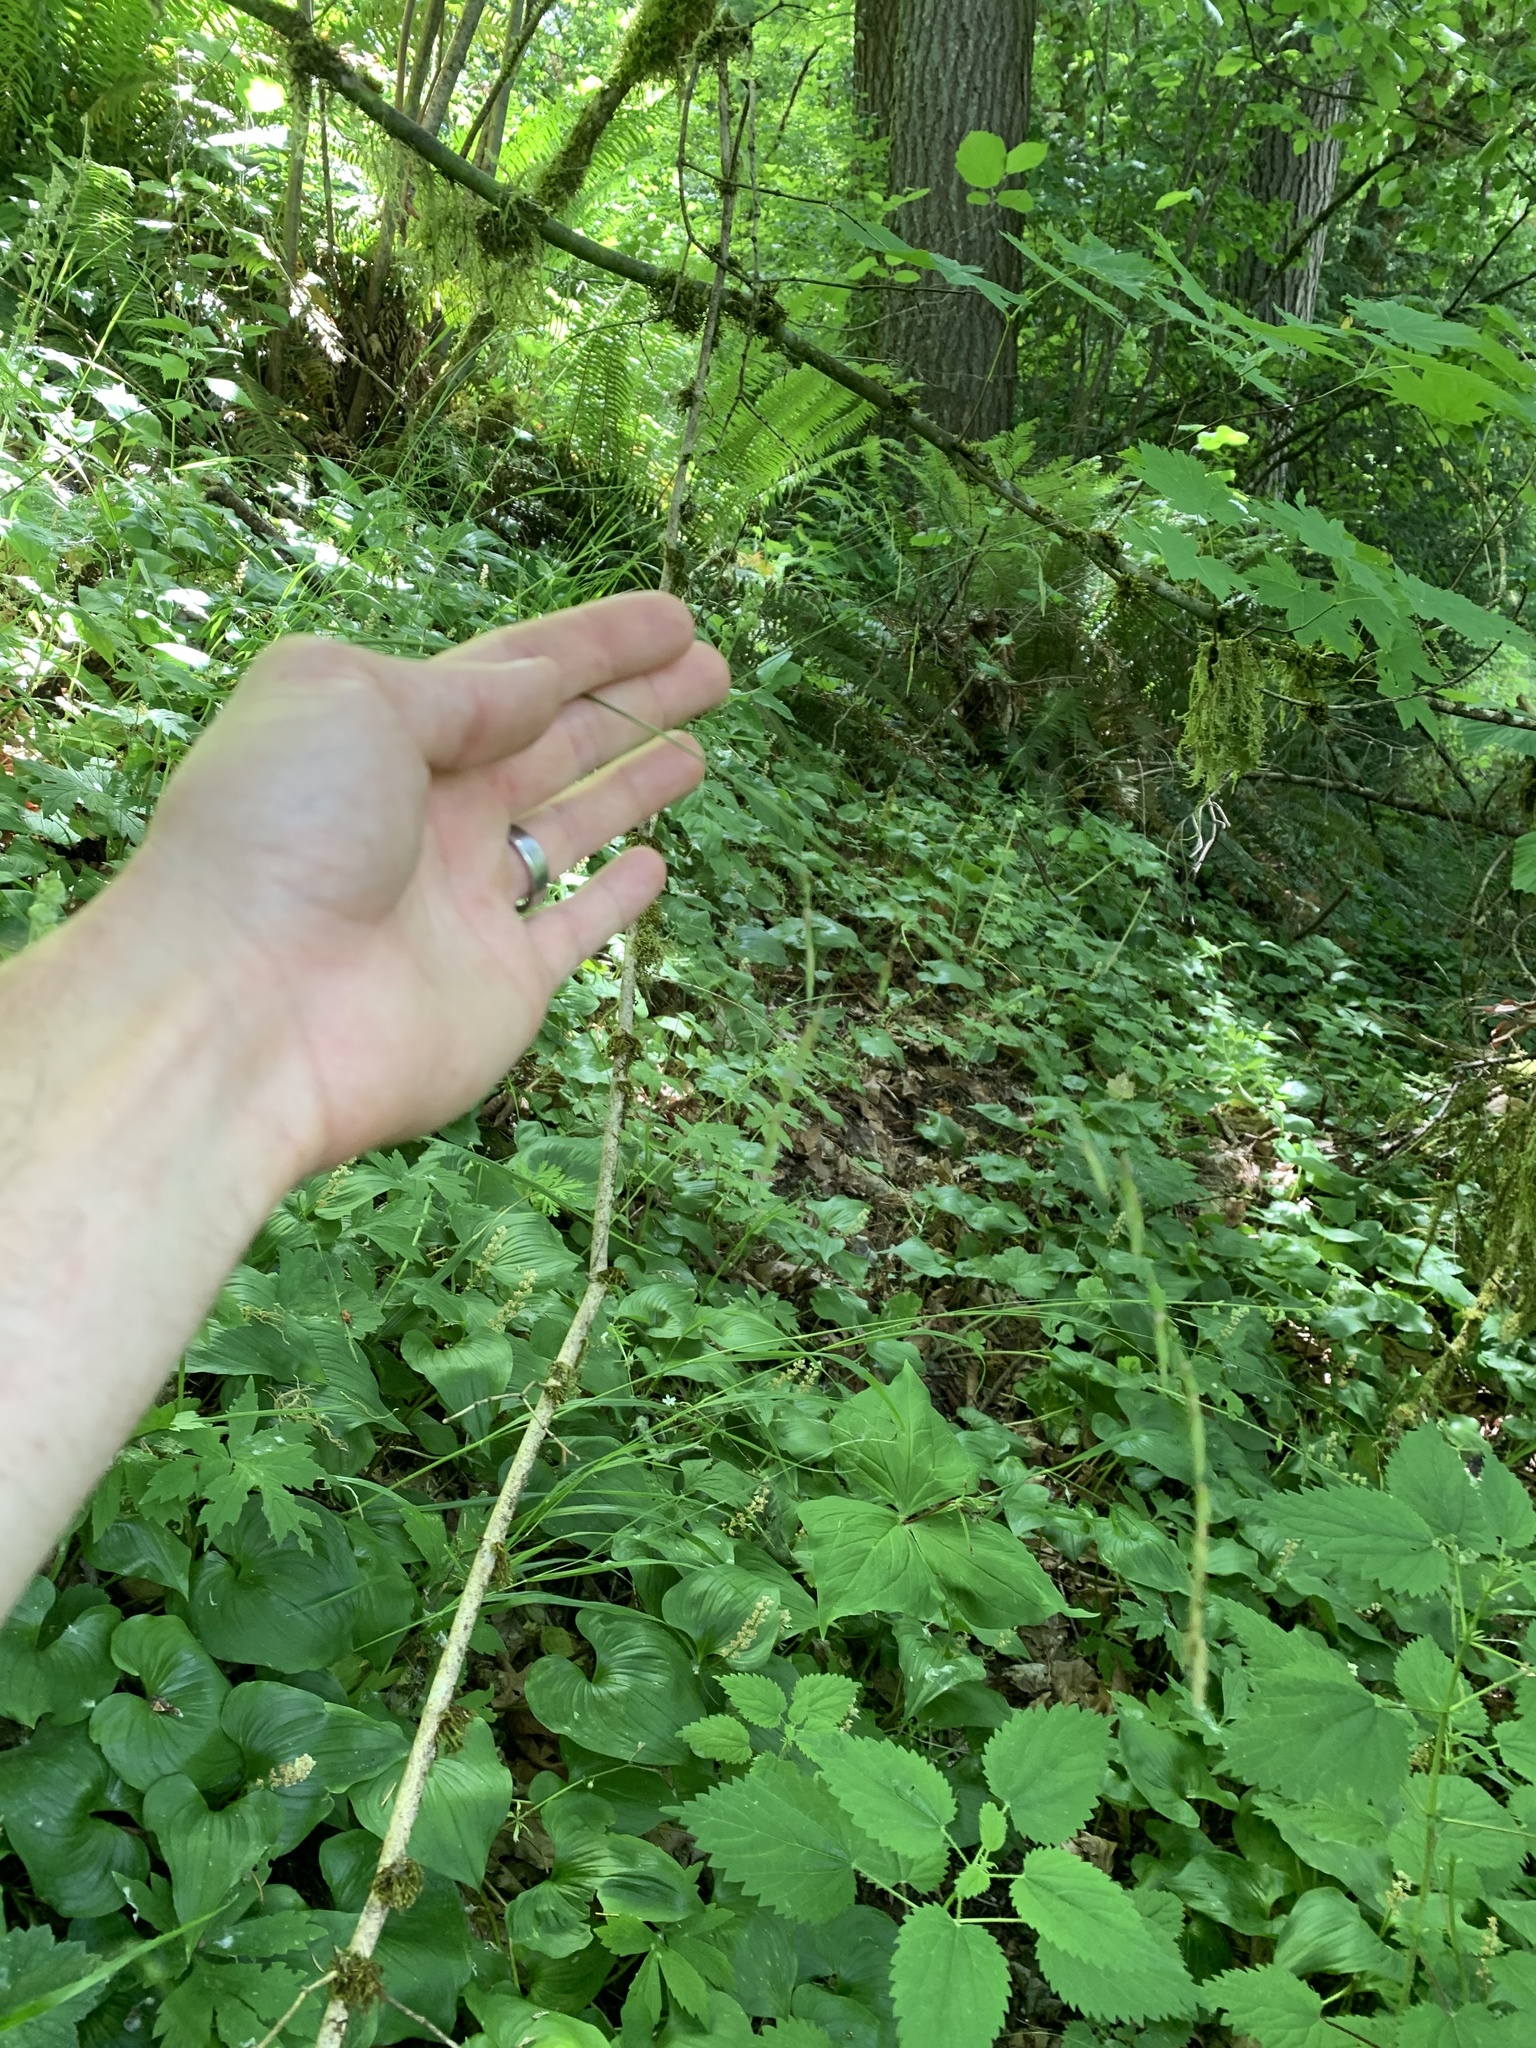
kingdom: Plantae
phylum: Tracheophyta
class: Liliopsida
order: Poales
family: Poaceae
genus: Melica
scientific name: Melica subulata
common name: Tapered oniongrass
